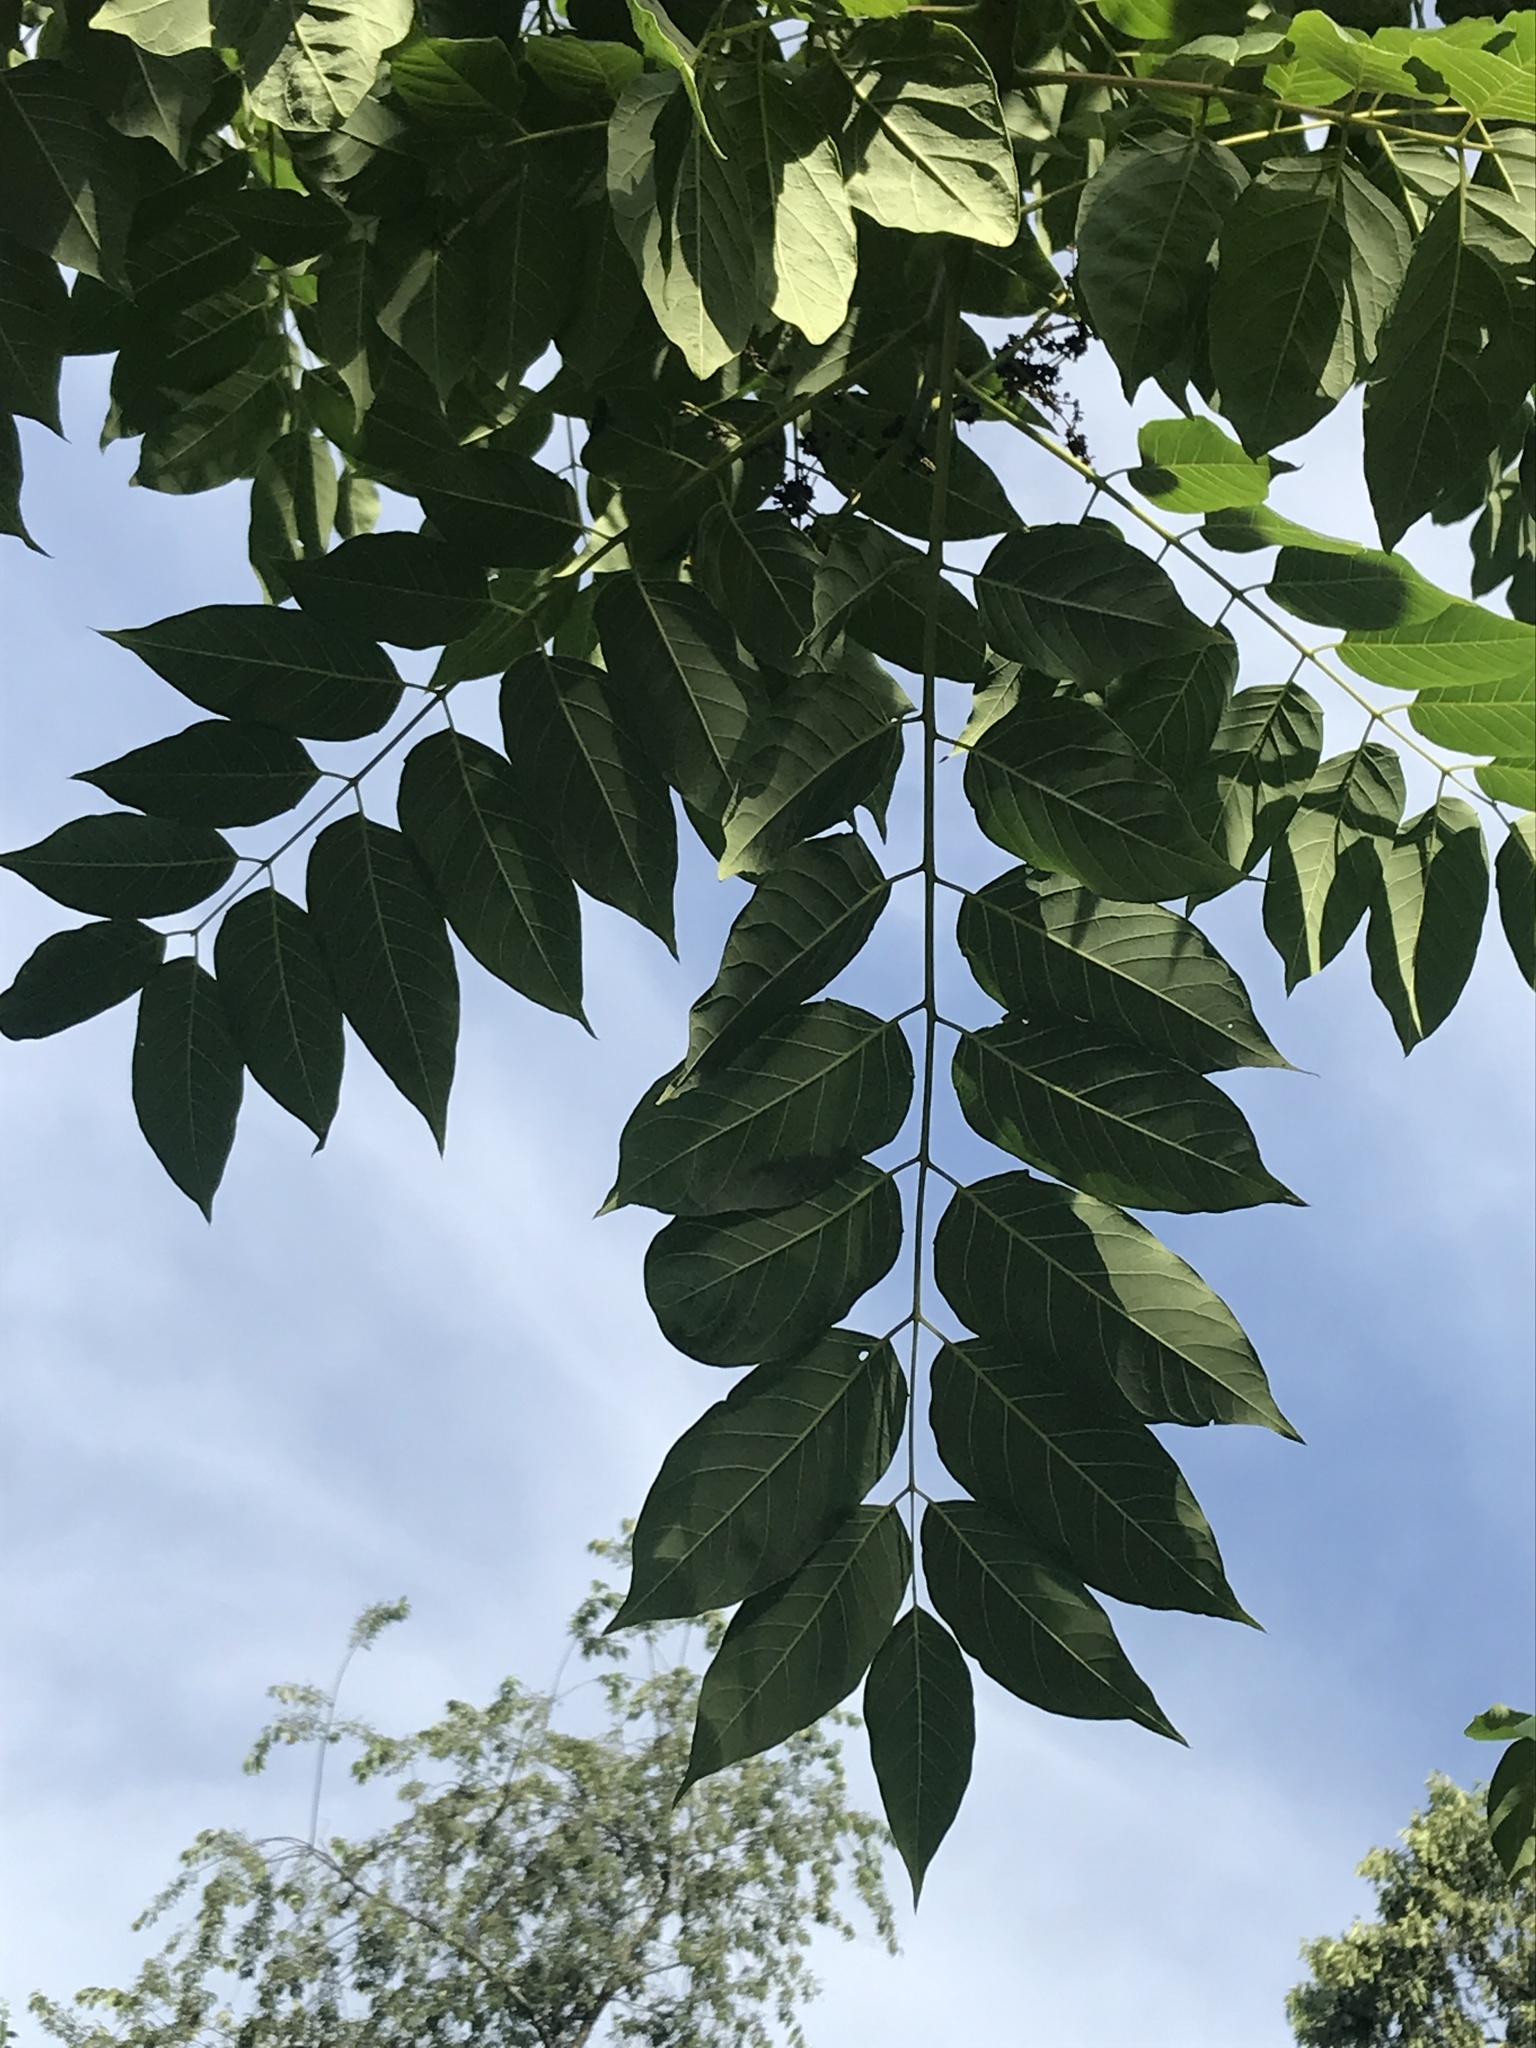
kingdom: Plantae
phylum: Tracheophyta
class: Magnoliopsida
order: Sapindales
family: Simaroubaceae
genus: Ailanthus
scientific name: Ailanthus altissima
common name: Tree-of-heaven
